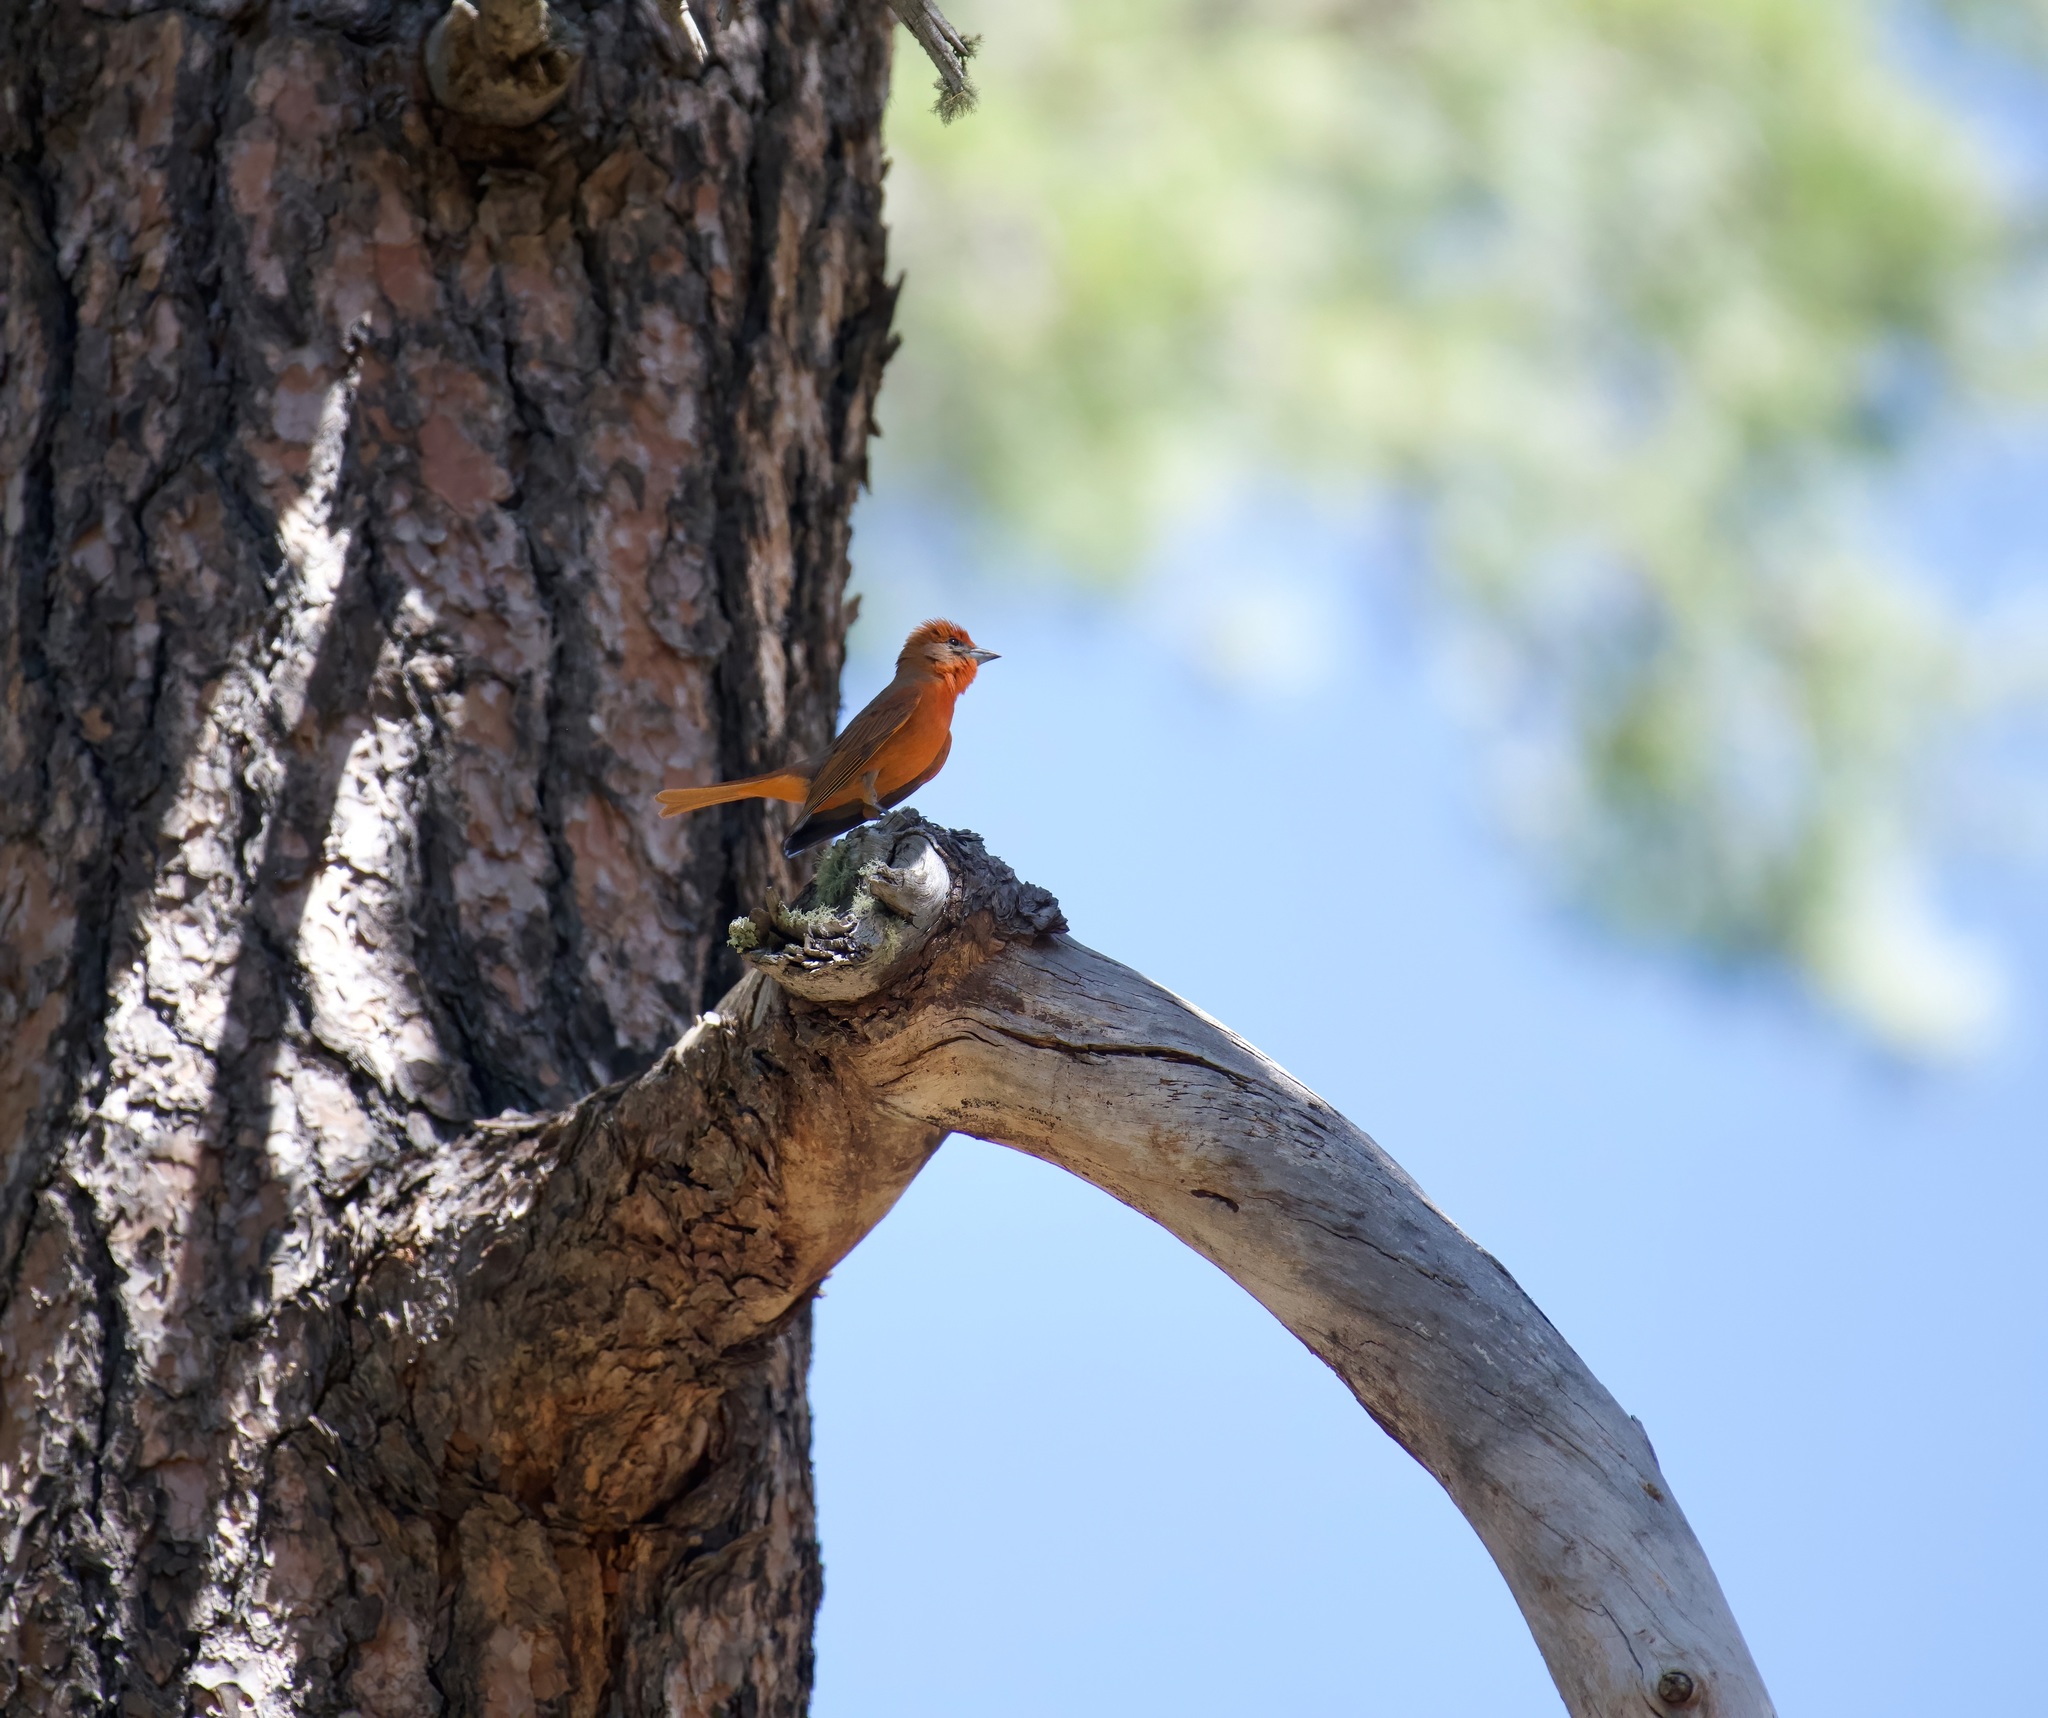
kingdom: Animalia
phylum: Chordata
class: Aves
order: Passeriformes
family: Cardinalidae
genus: Piranga
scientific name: Piranga flava
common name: Red tanager
